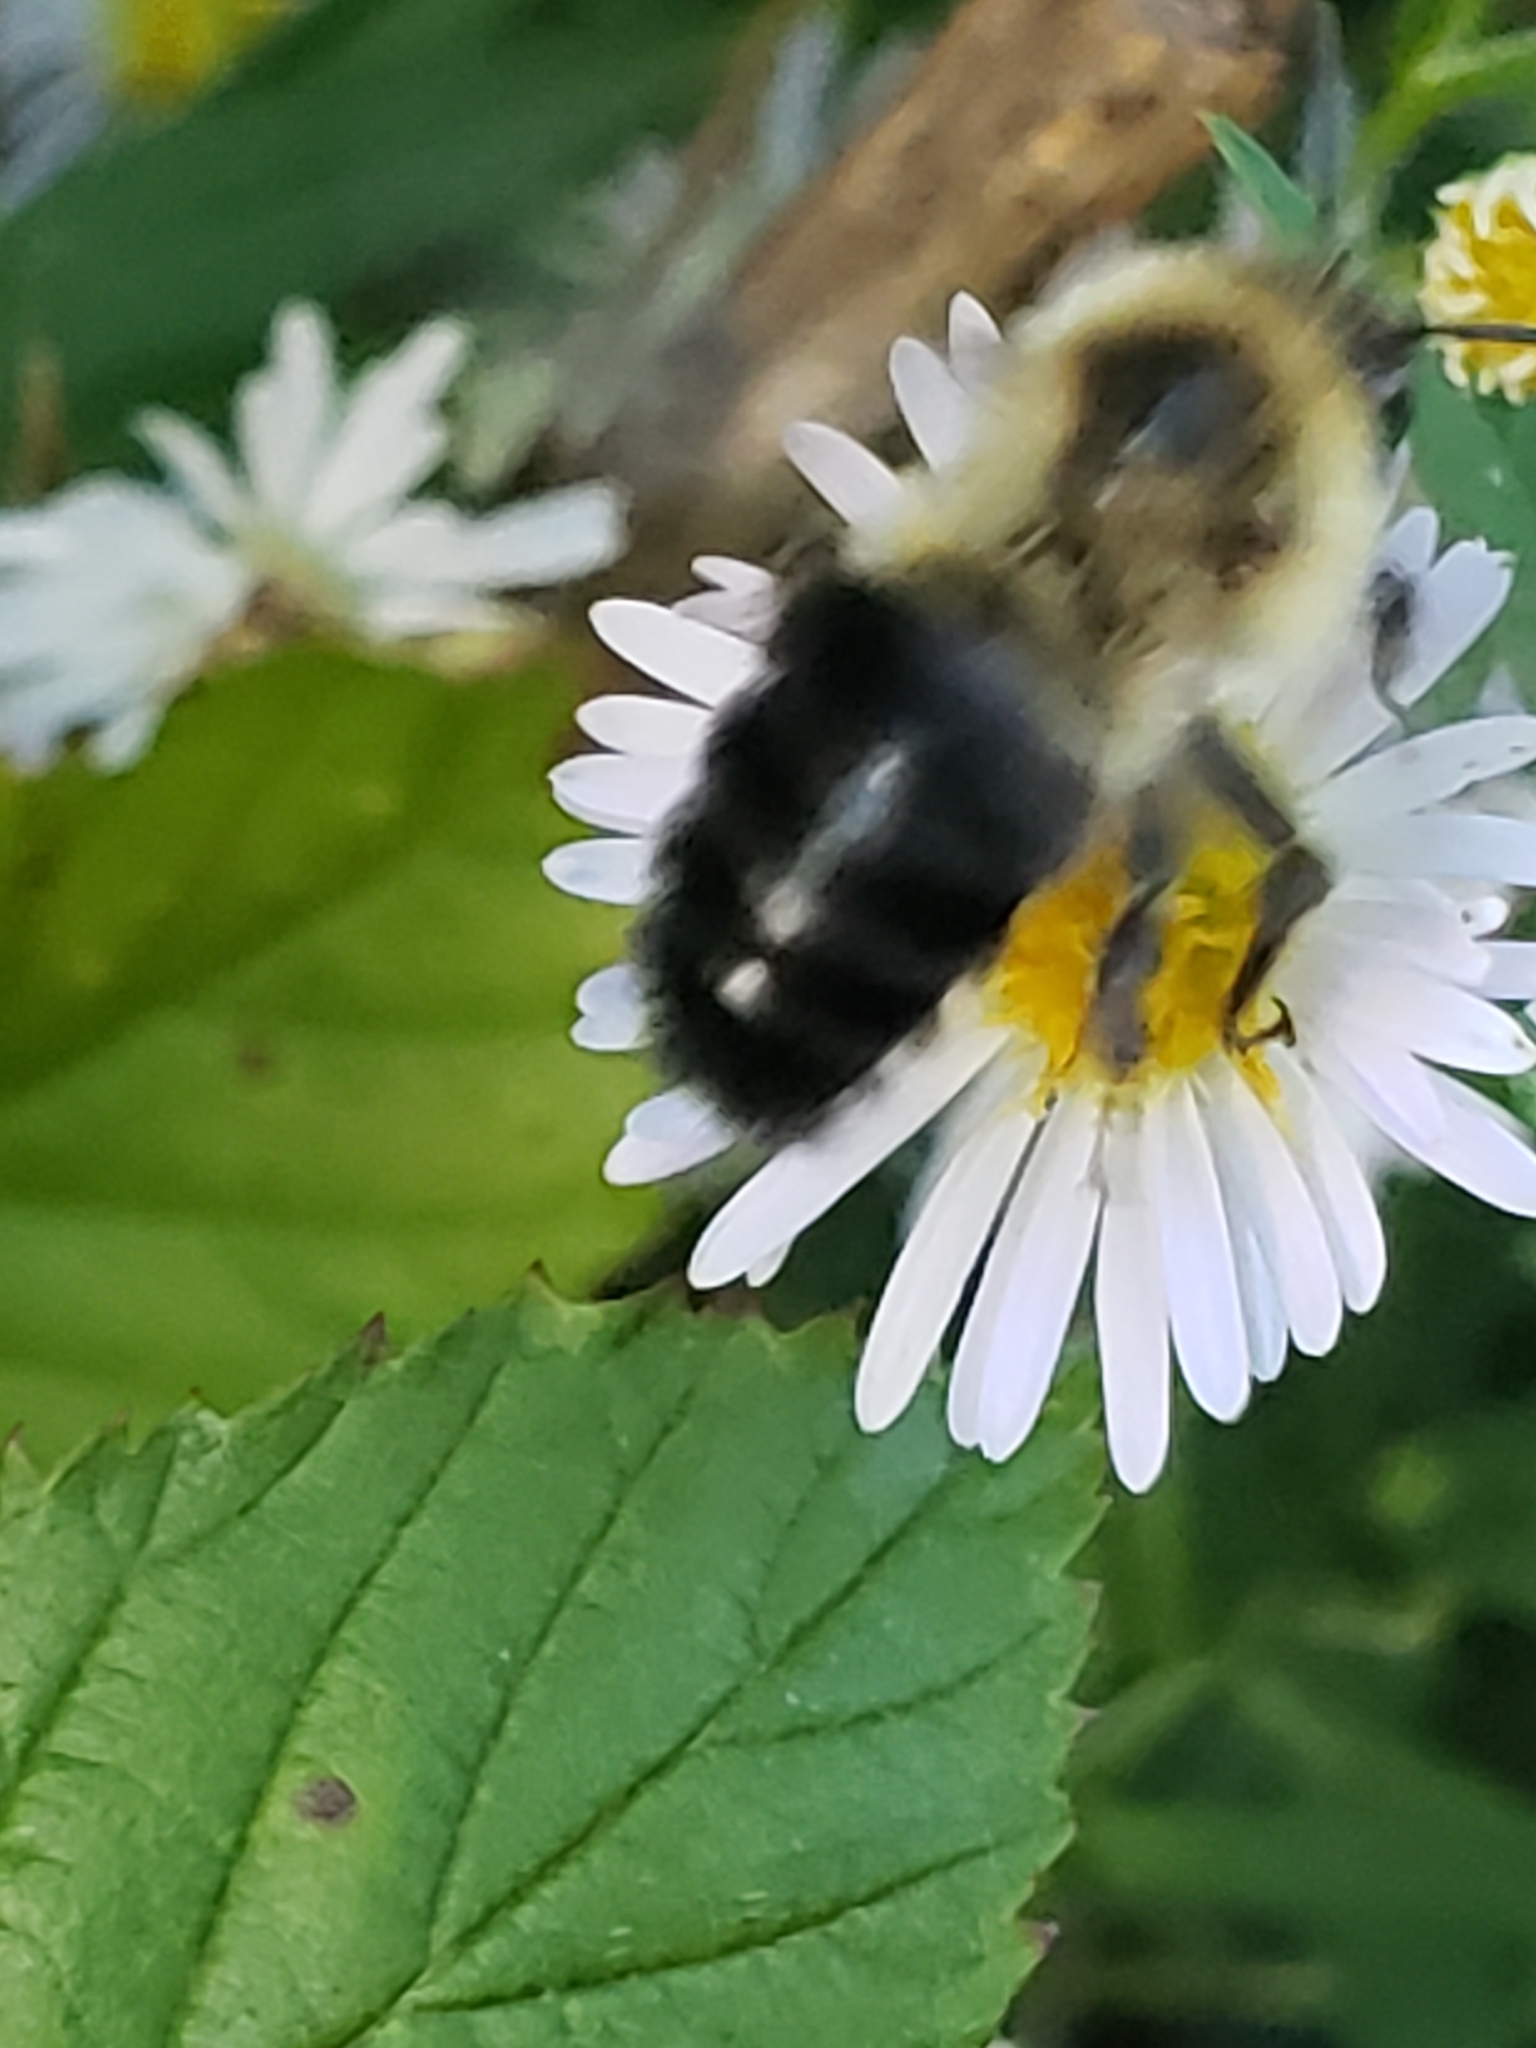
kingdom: Animalia
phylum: Arthropoda
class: Insecta
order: Hymenoptera
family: Apidae
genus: Bombus
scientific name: Bombus impatiens
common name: Common eastern bumble bee
